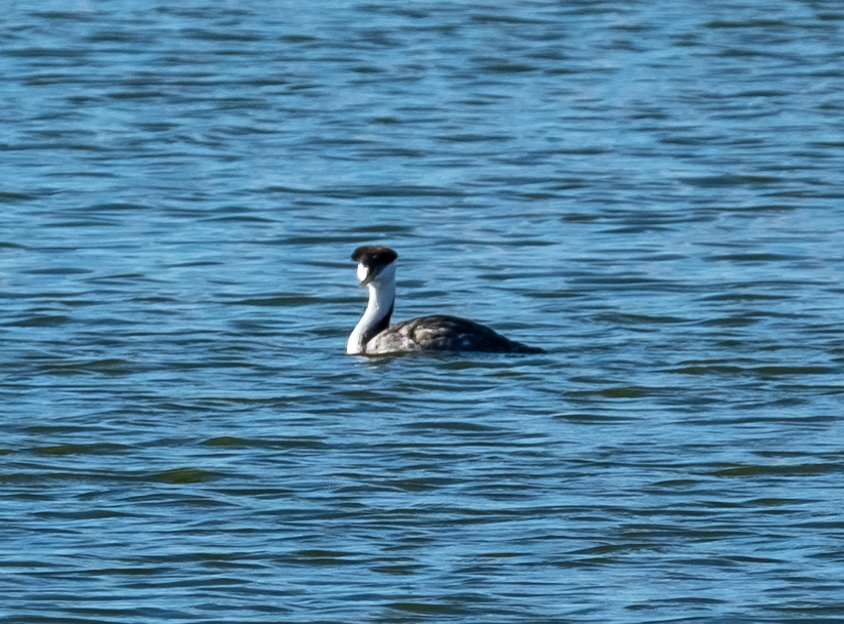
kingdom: Animalia
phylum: Chordata
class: Aves
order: Podicipediformes
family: Podicipedidae
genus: Aechmophorus
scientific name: Aechmophorus occidentalis
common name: Western grebe
